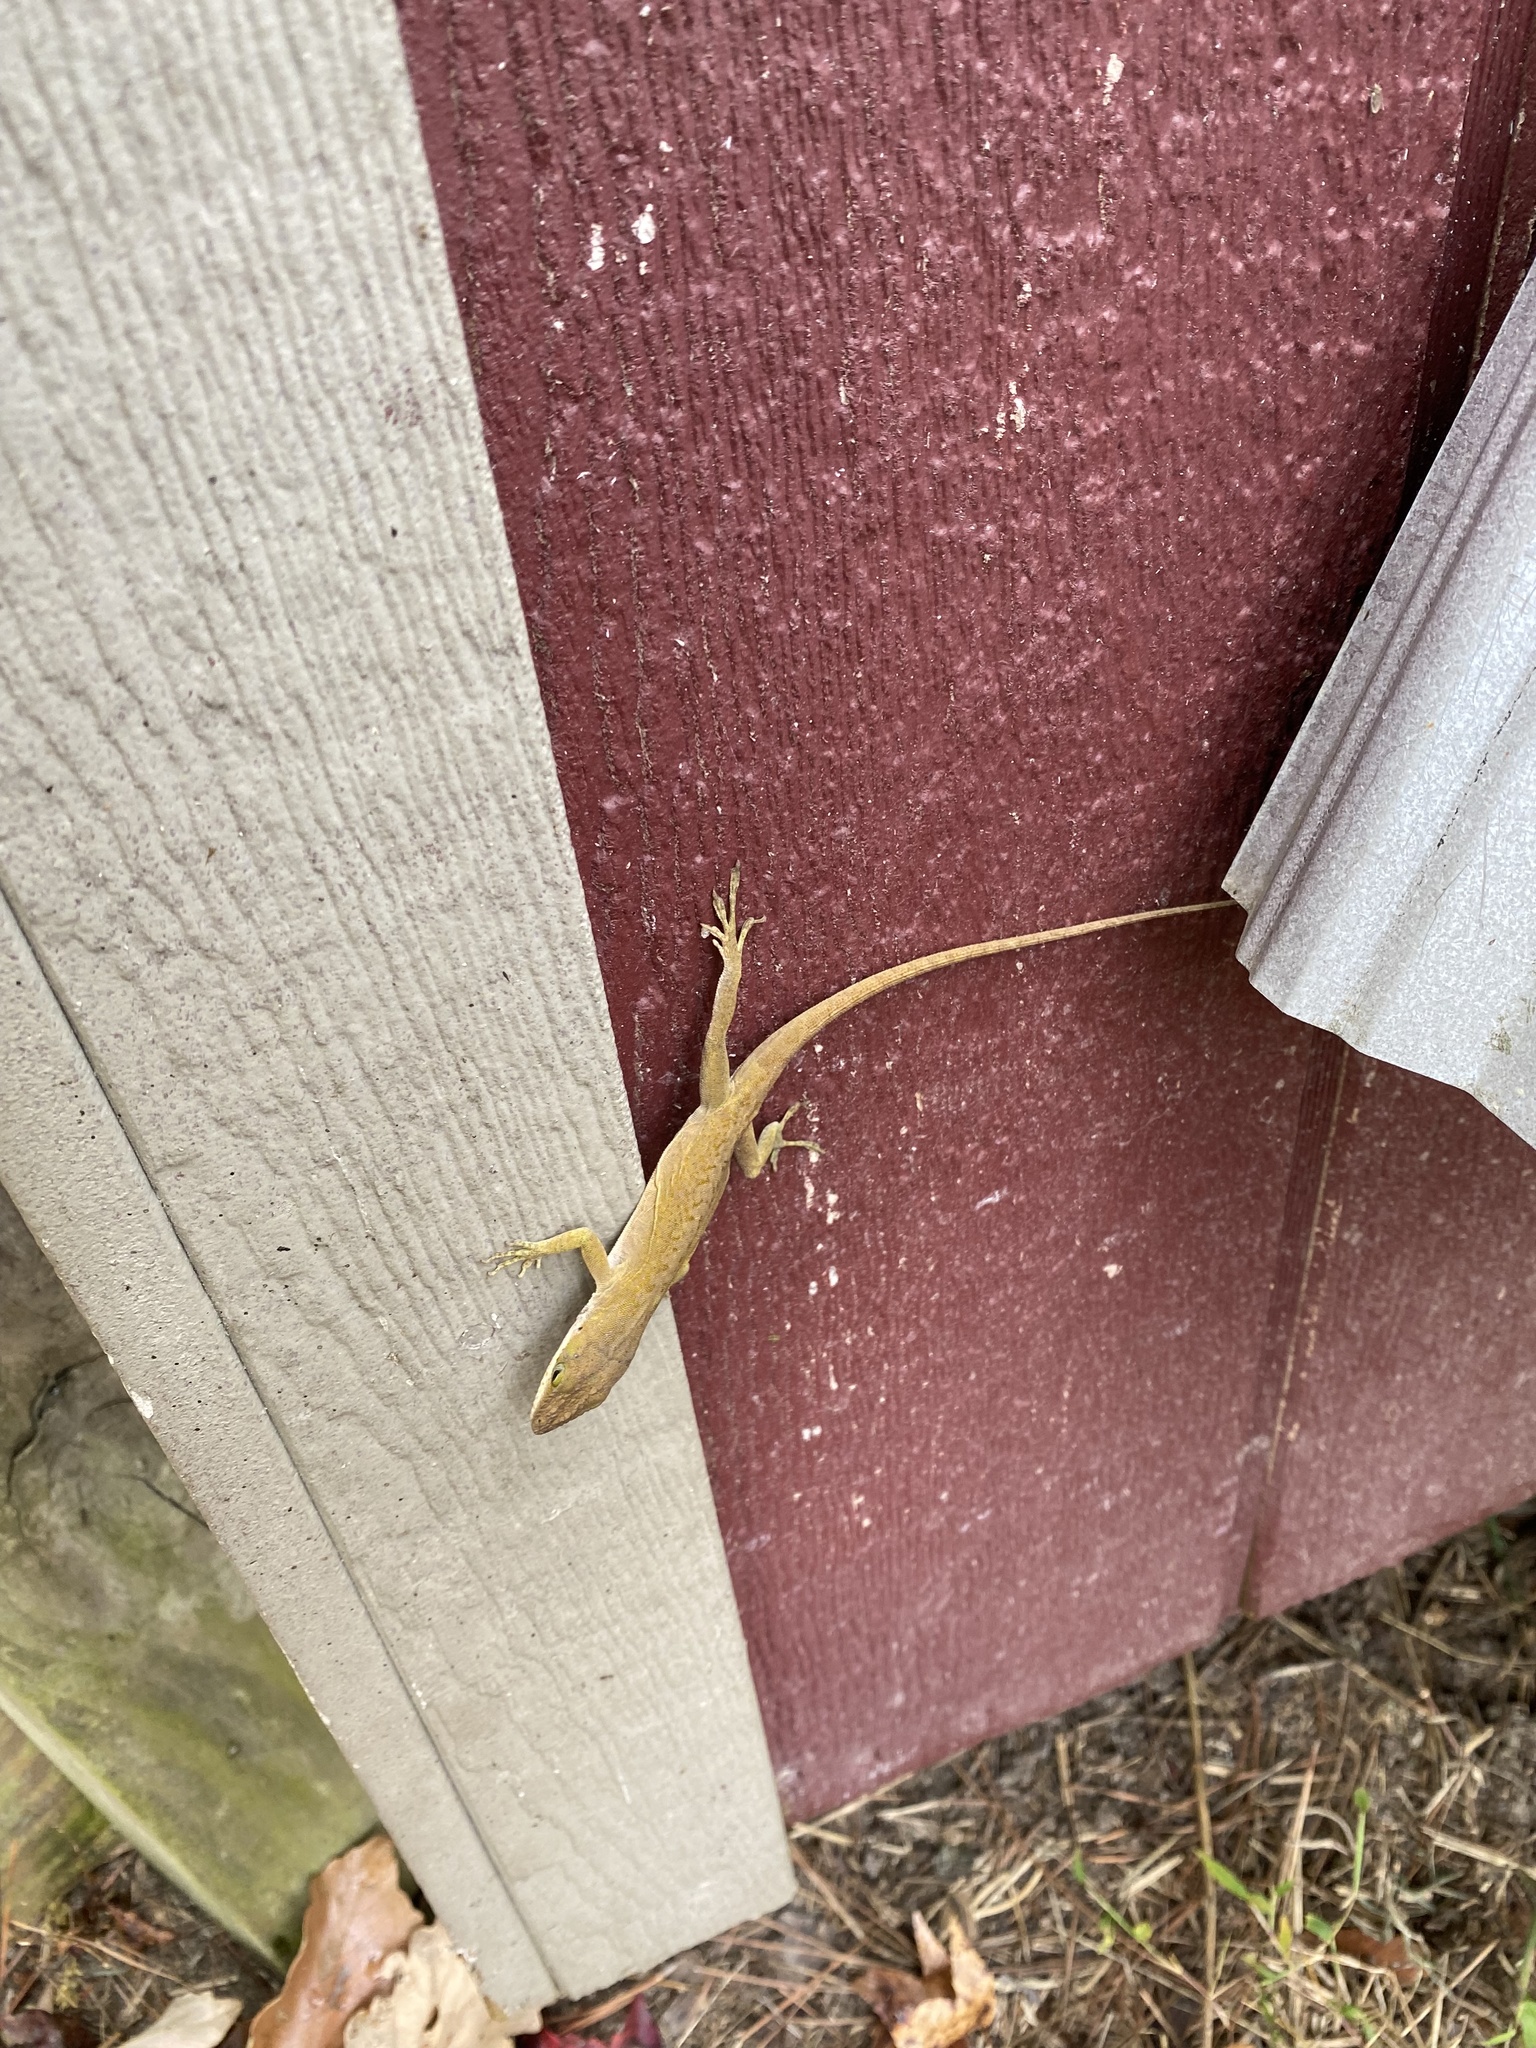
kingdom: Animalia
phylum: Chordata
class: Squamata
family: Dactyloidae
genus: Anolis
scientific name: Anolis carolinensis
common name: Green anole
